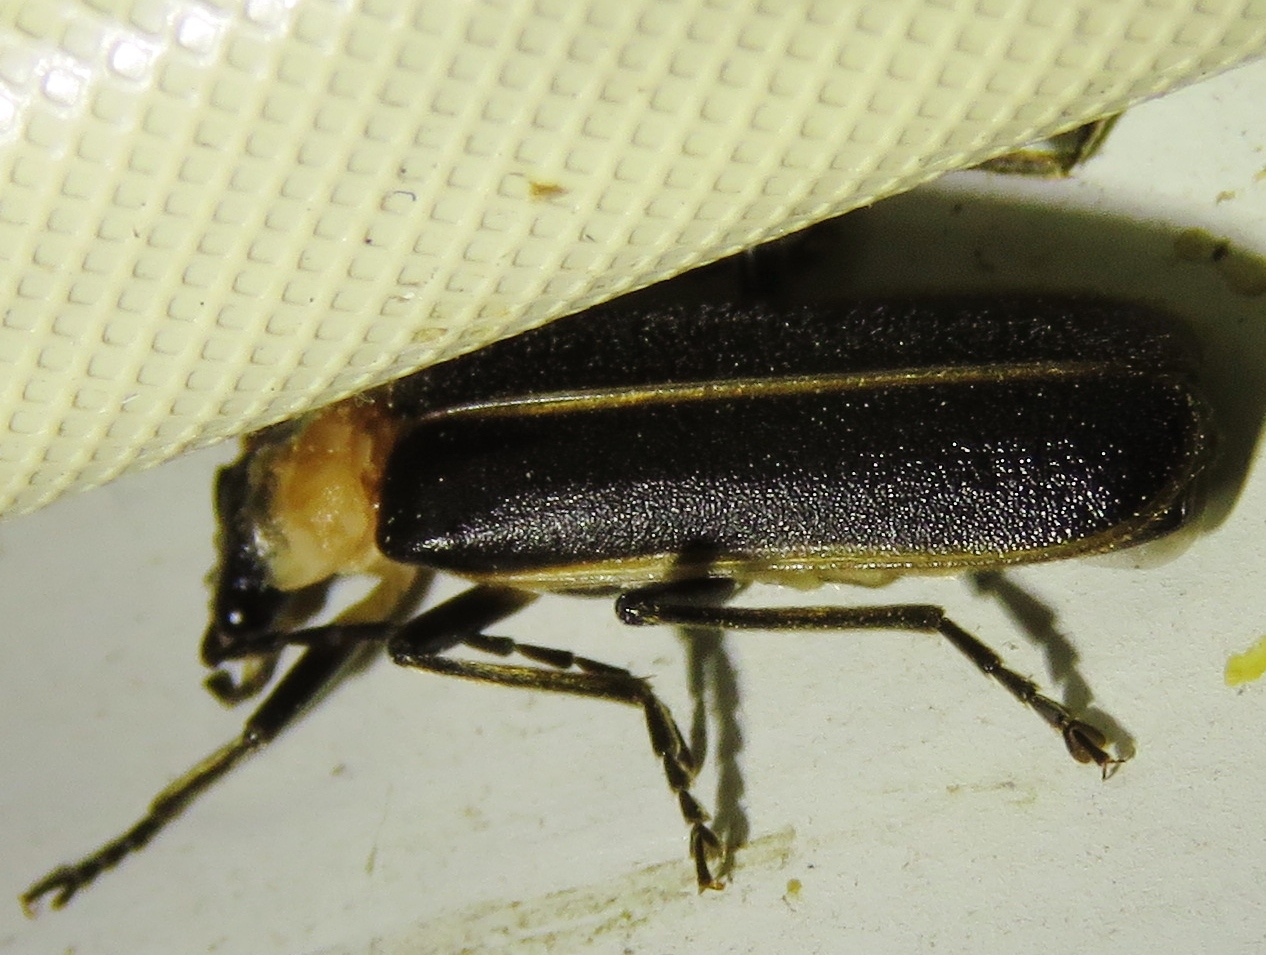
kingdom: Animalia
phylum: Arthropoda
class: Insecta
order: Coleoptera
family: Cantharidae
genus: Podabrus
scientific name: Podabrus flavicollis
